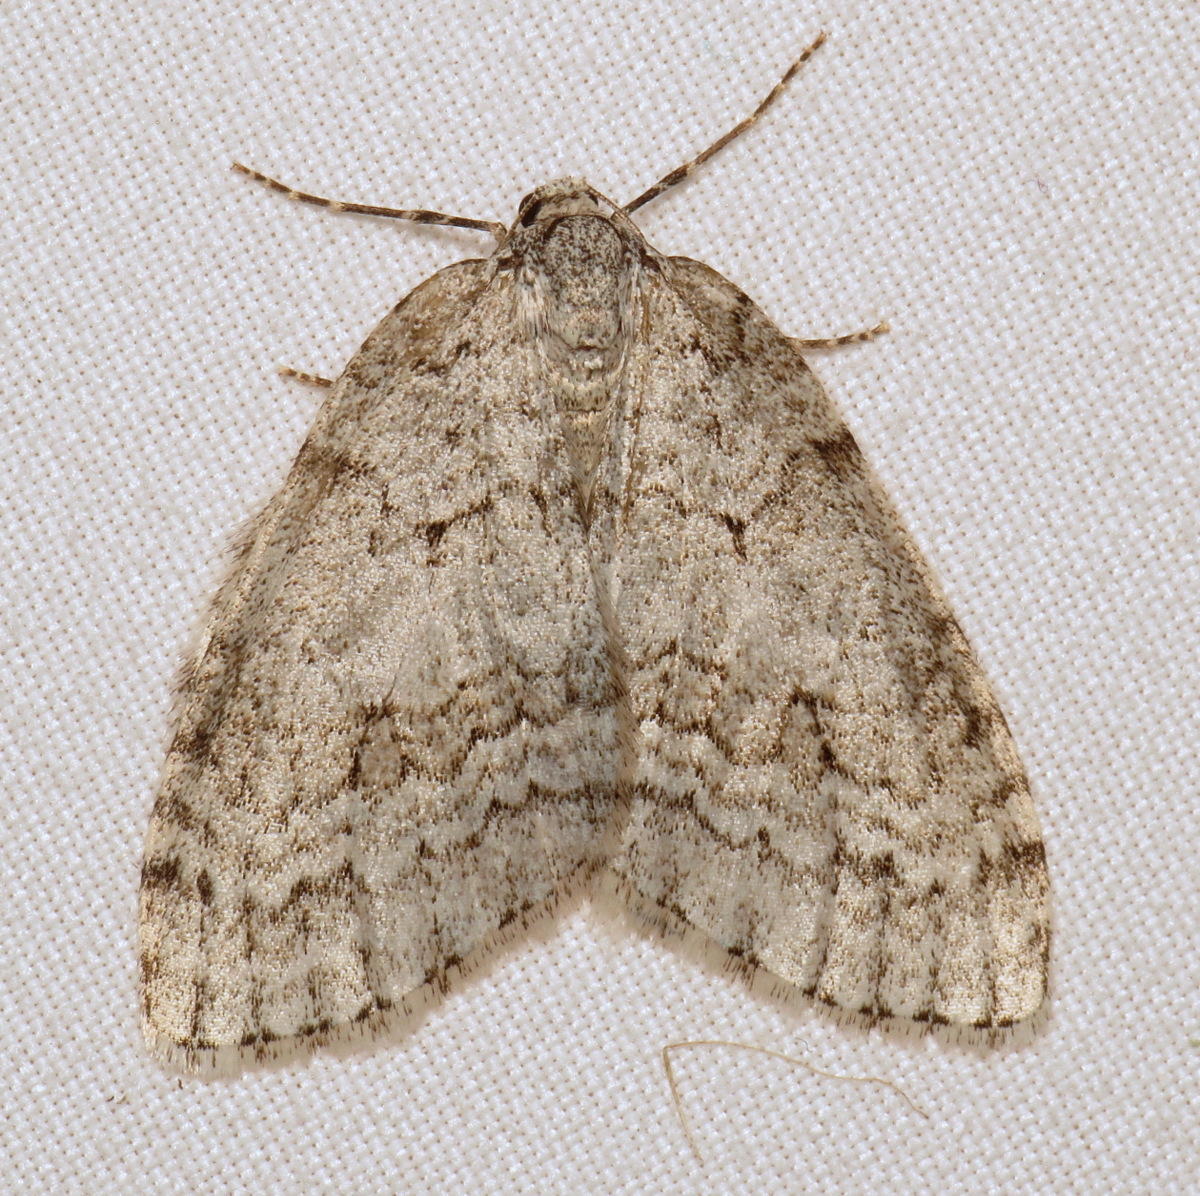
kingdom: Animalia
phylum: Arthropoda
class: Insecta
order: Lepidoptera
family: Geometridae
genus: Epirrita
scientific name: Epirrita autumnata
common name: Autumnal moth
